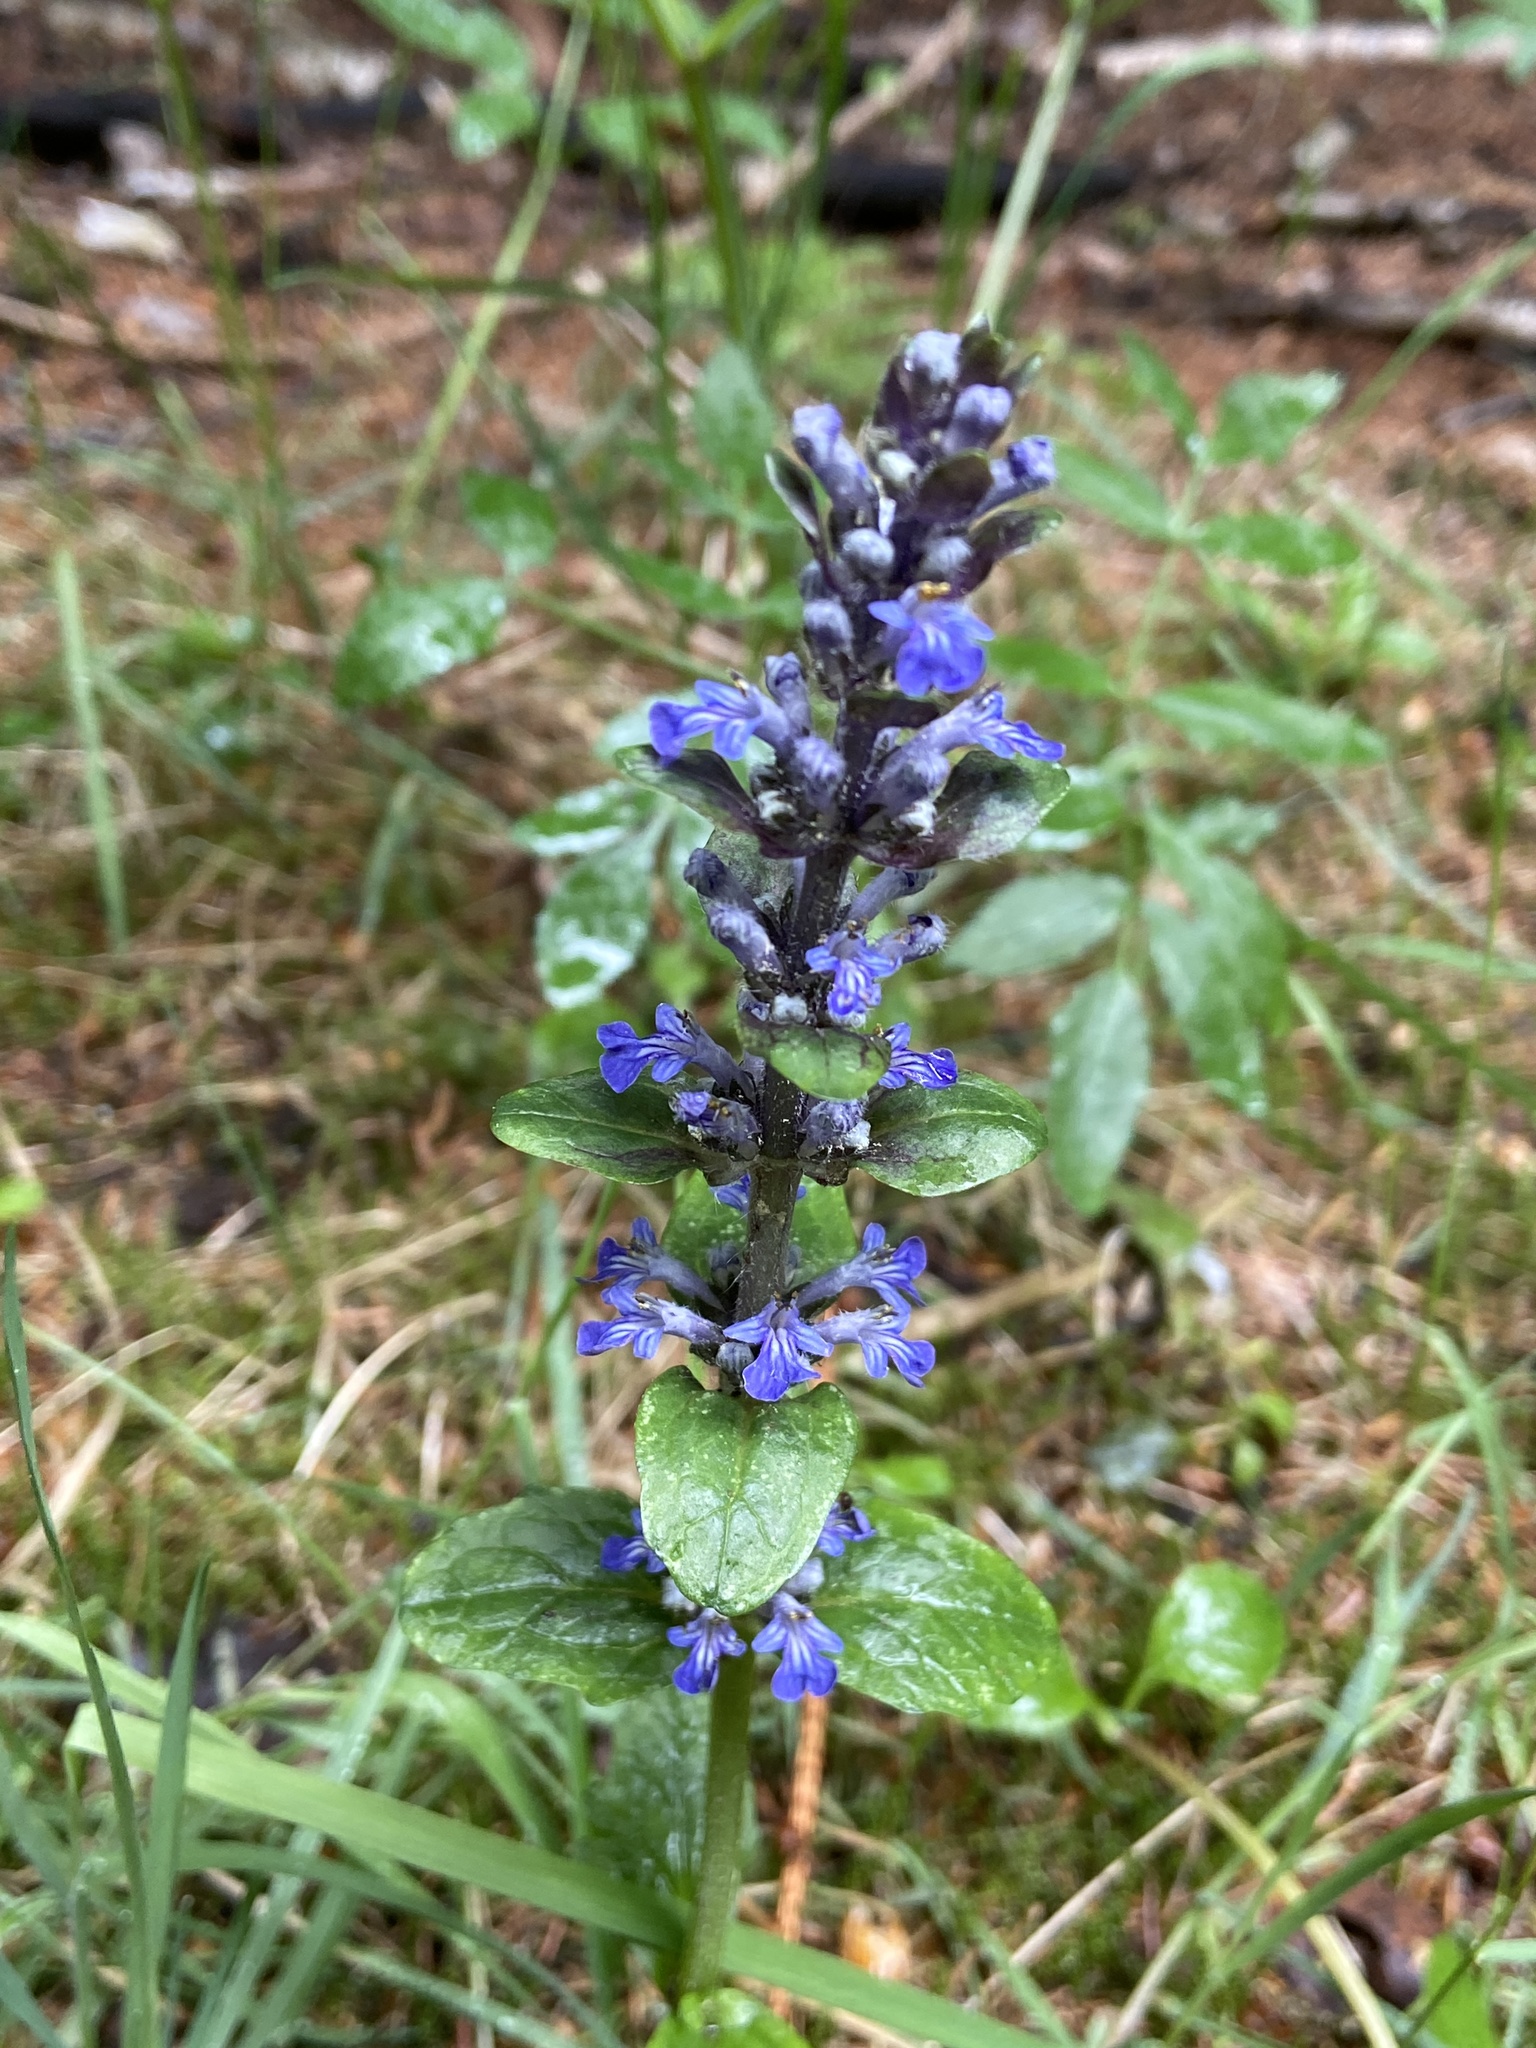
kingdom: Plantae
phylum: Tracheophyta
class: Magnoliopsida
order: Lamiales
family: Lamiaceae
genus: Ajuga
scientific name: Ajuga reptans
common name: Bugle
